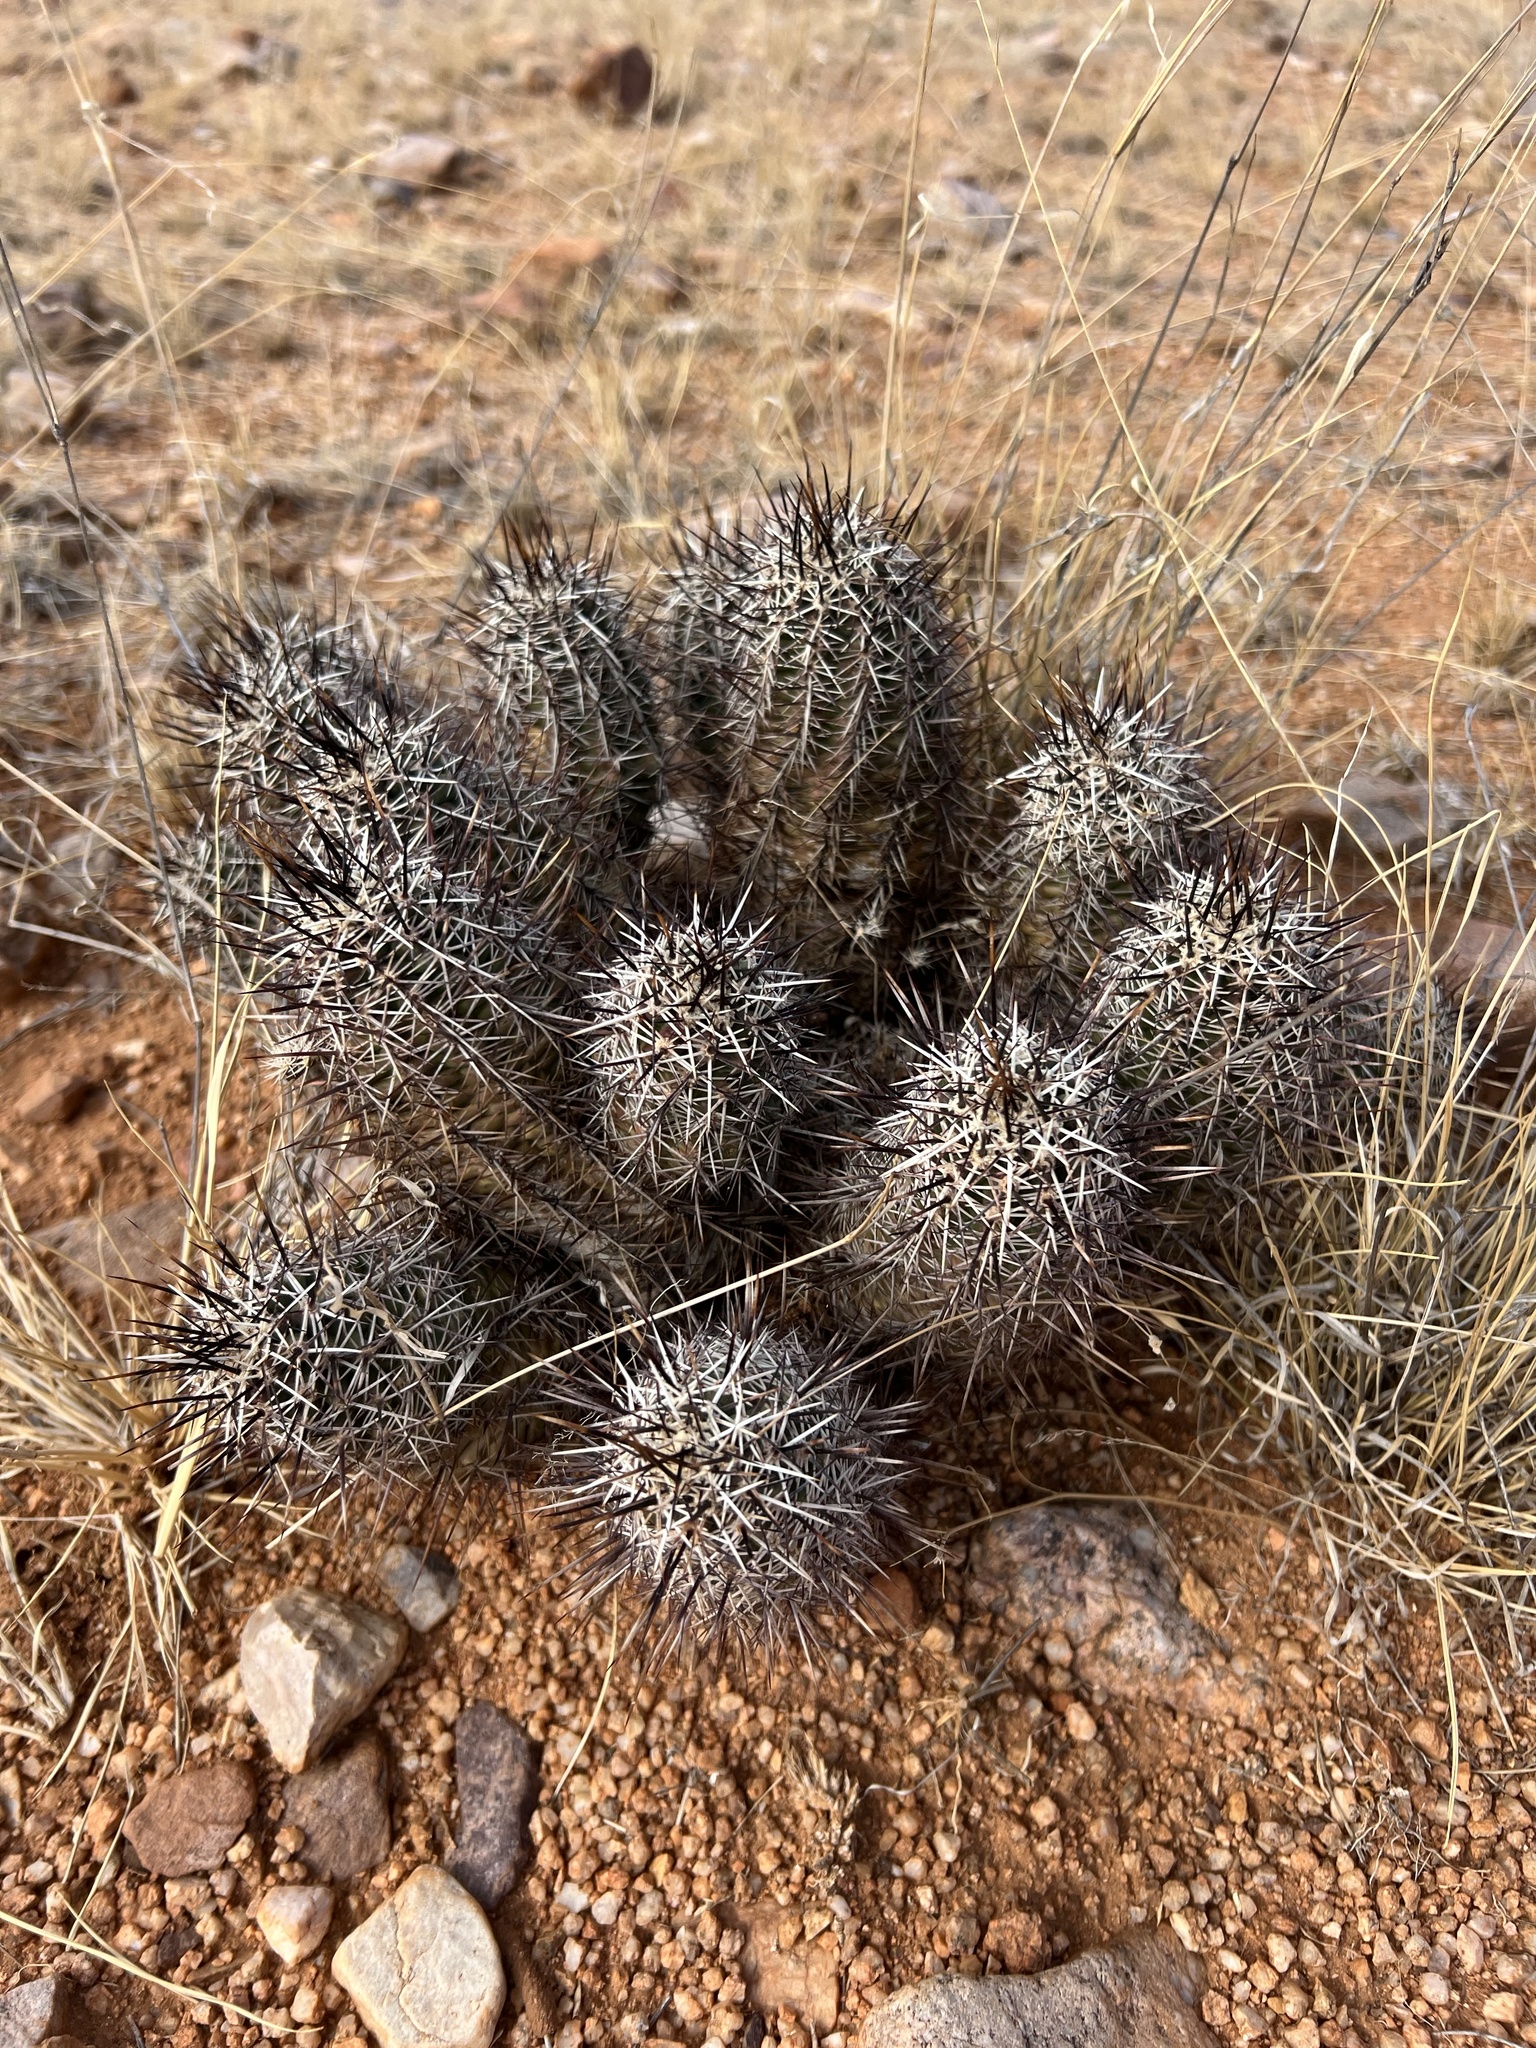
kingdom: Plantae
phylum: Tracheophyta
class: Magnoliopsida
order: Caryophyllales
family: Cactaceae
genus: Echinocereus
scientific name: Echinocereus fasciculatus
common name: Bundle hedgehog
